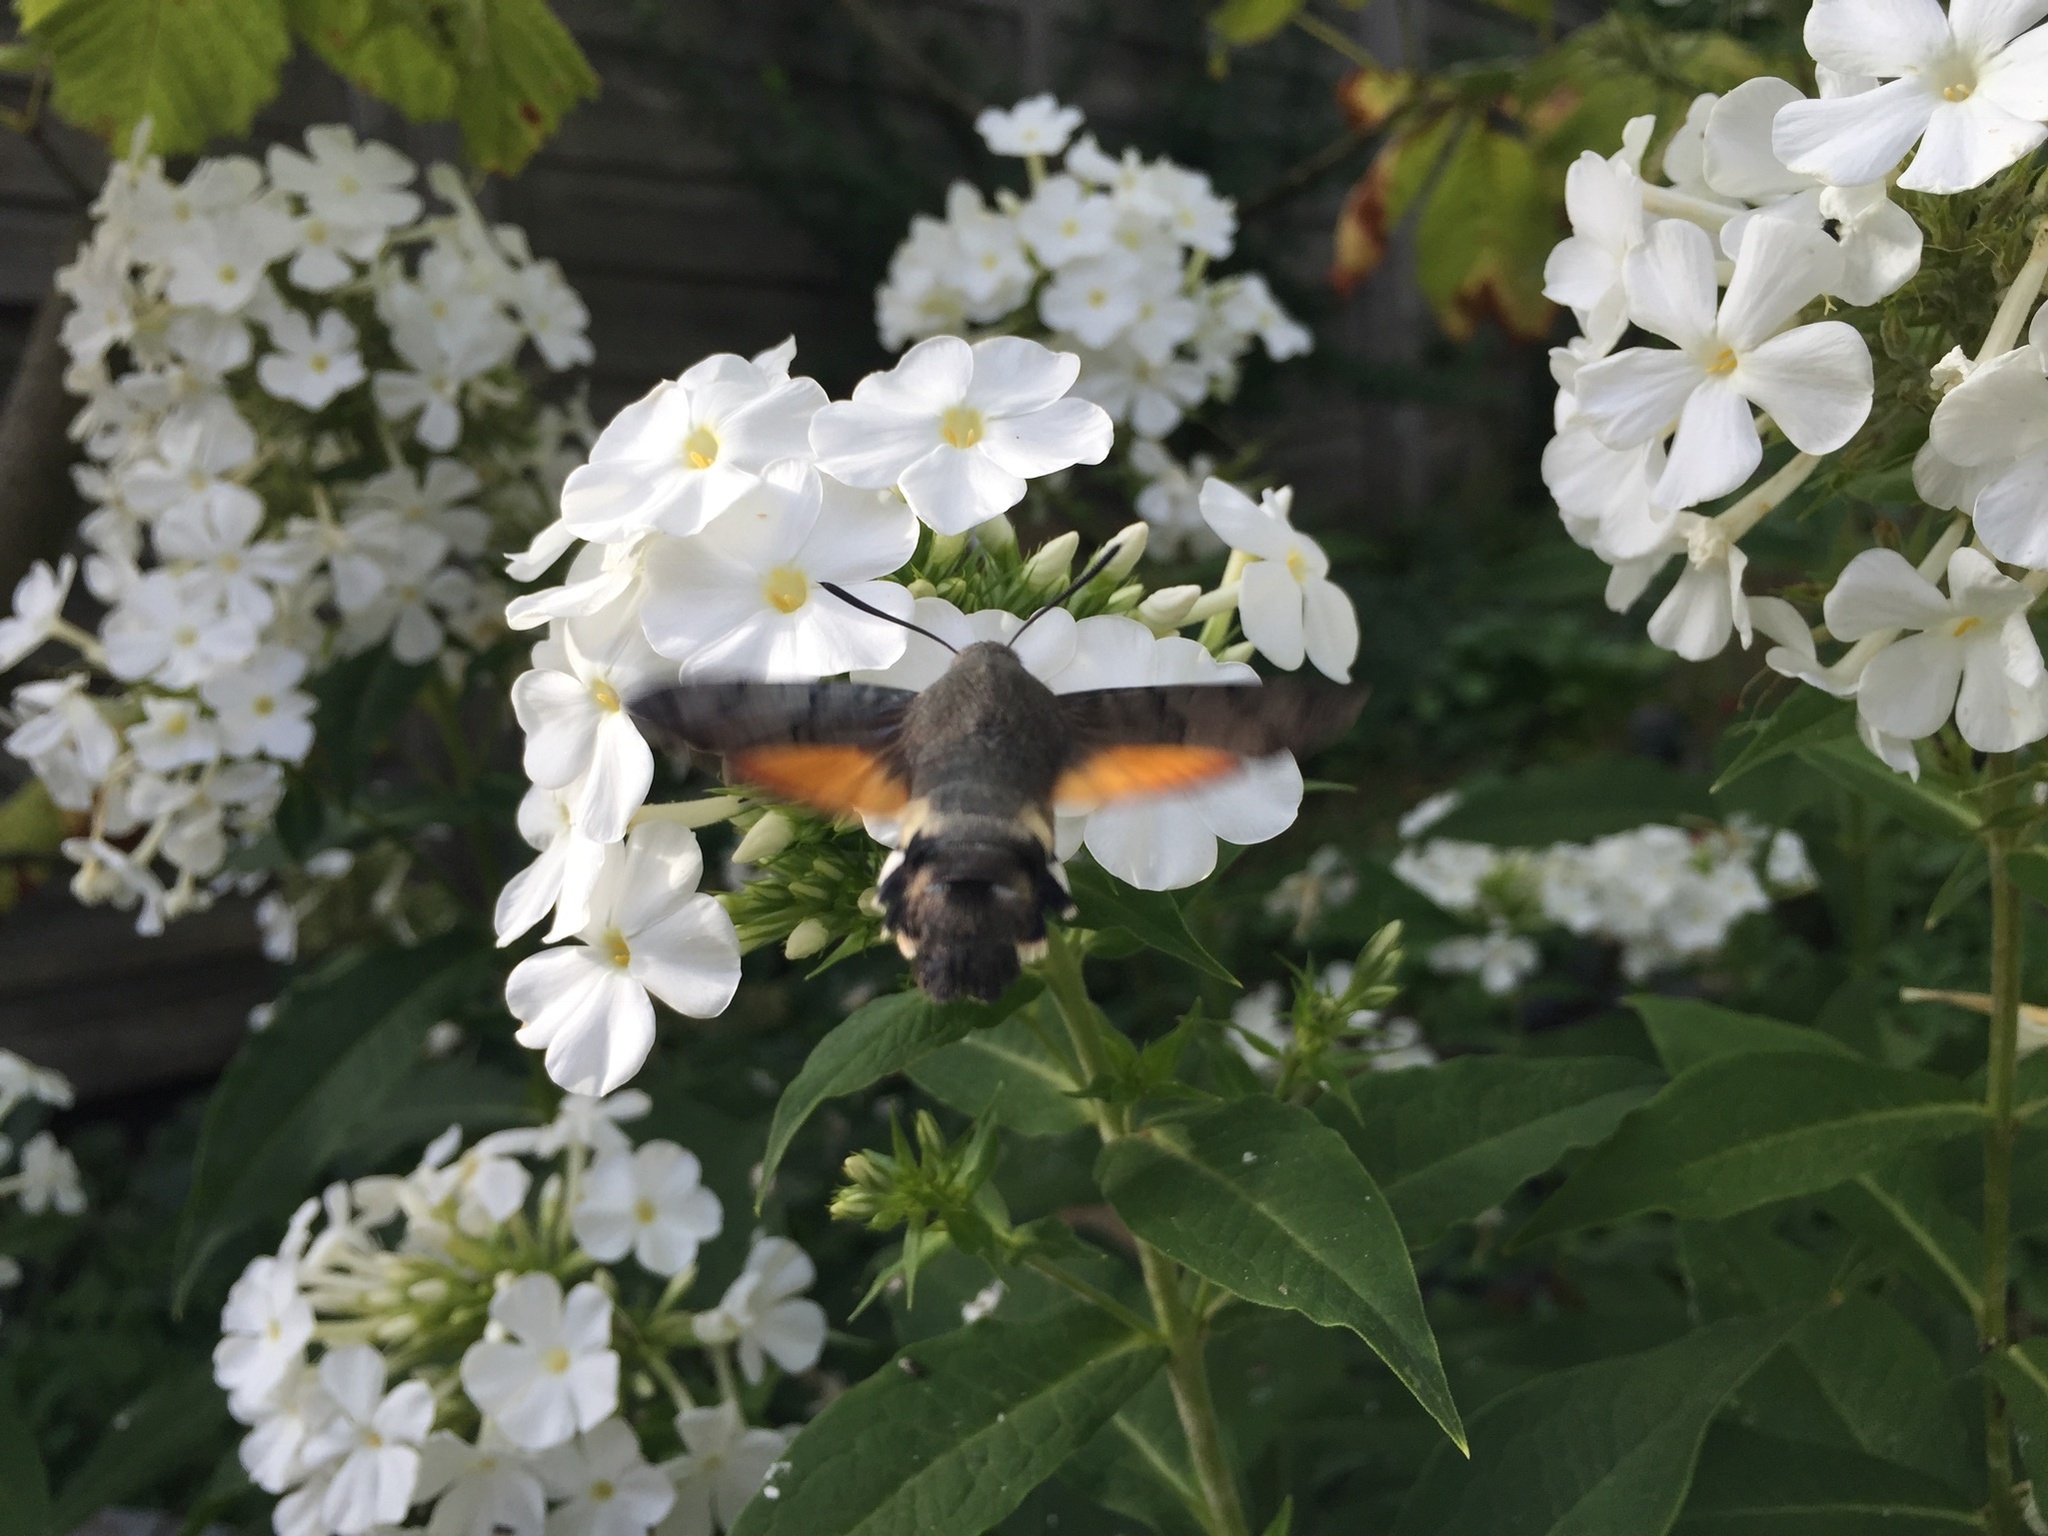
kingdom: Animalia
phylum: Arthropoda
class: Insecta
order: Lepidoptera
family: Sphingidae
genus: Macroglossum
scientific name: Macroglossum stellatarum
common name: Humming-bird hawk-moth
